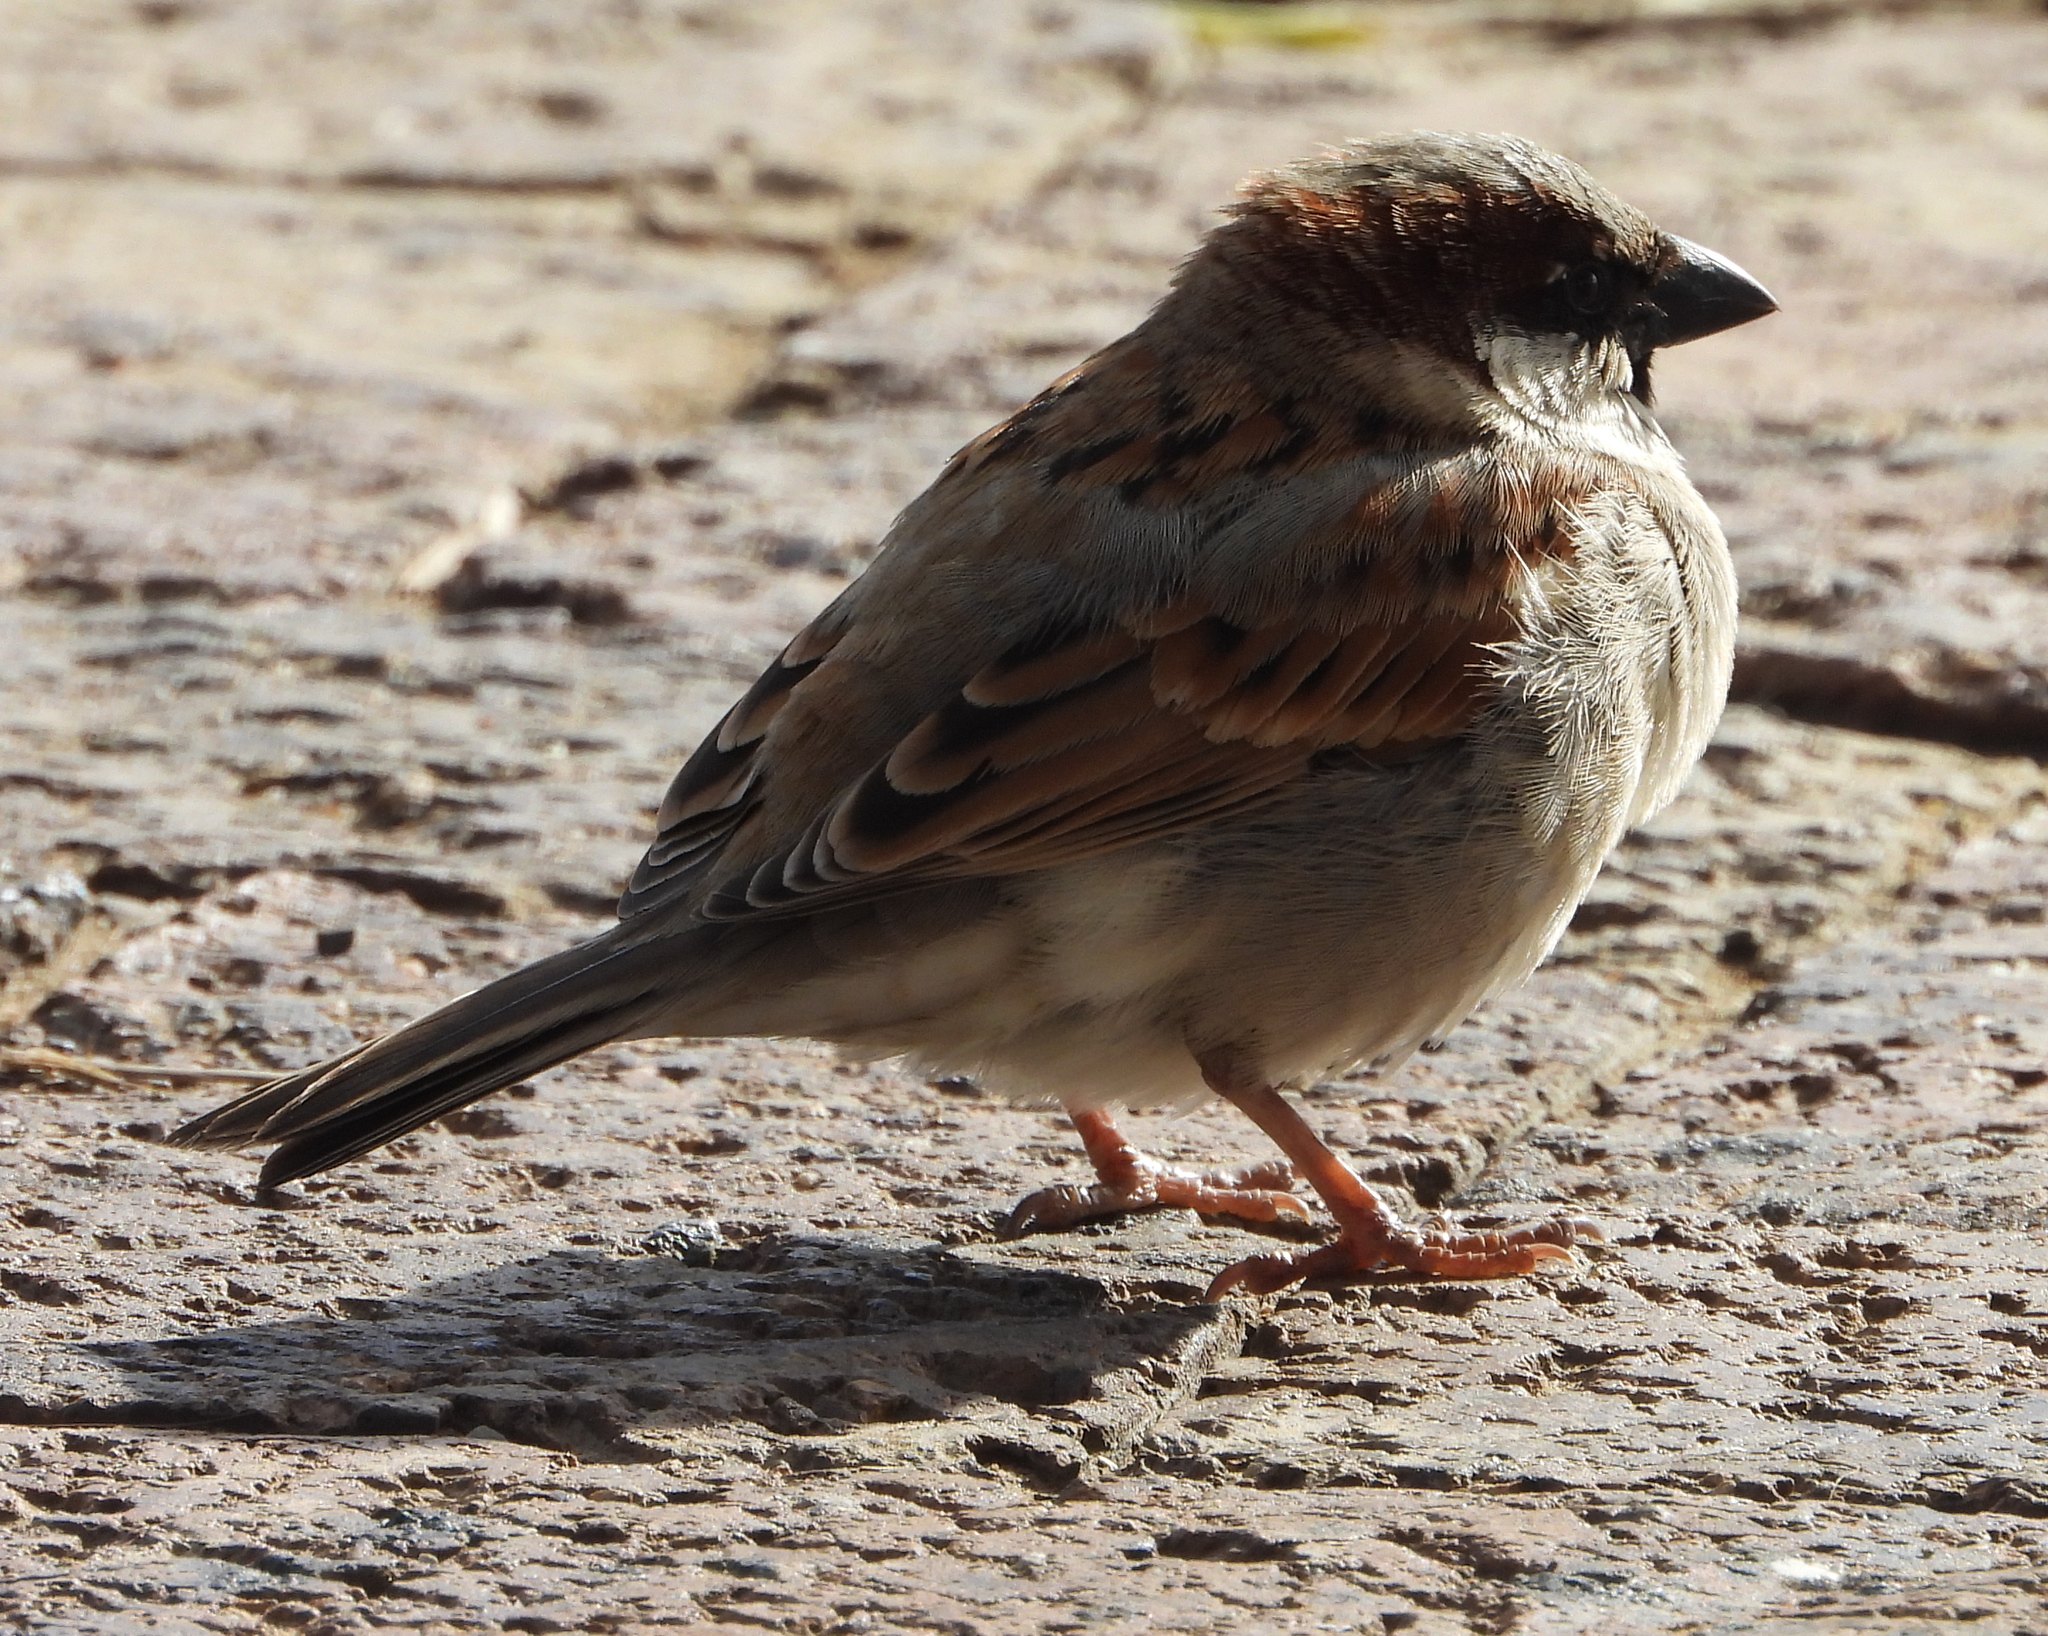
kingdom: Animalia
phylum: Chordata
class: Aves
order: Passeriformes
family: Passeridae
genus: Passer
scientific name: Passer domesticus
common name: House sparrow
